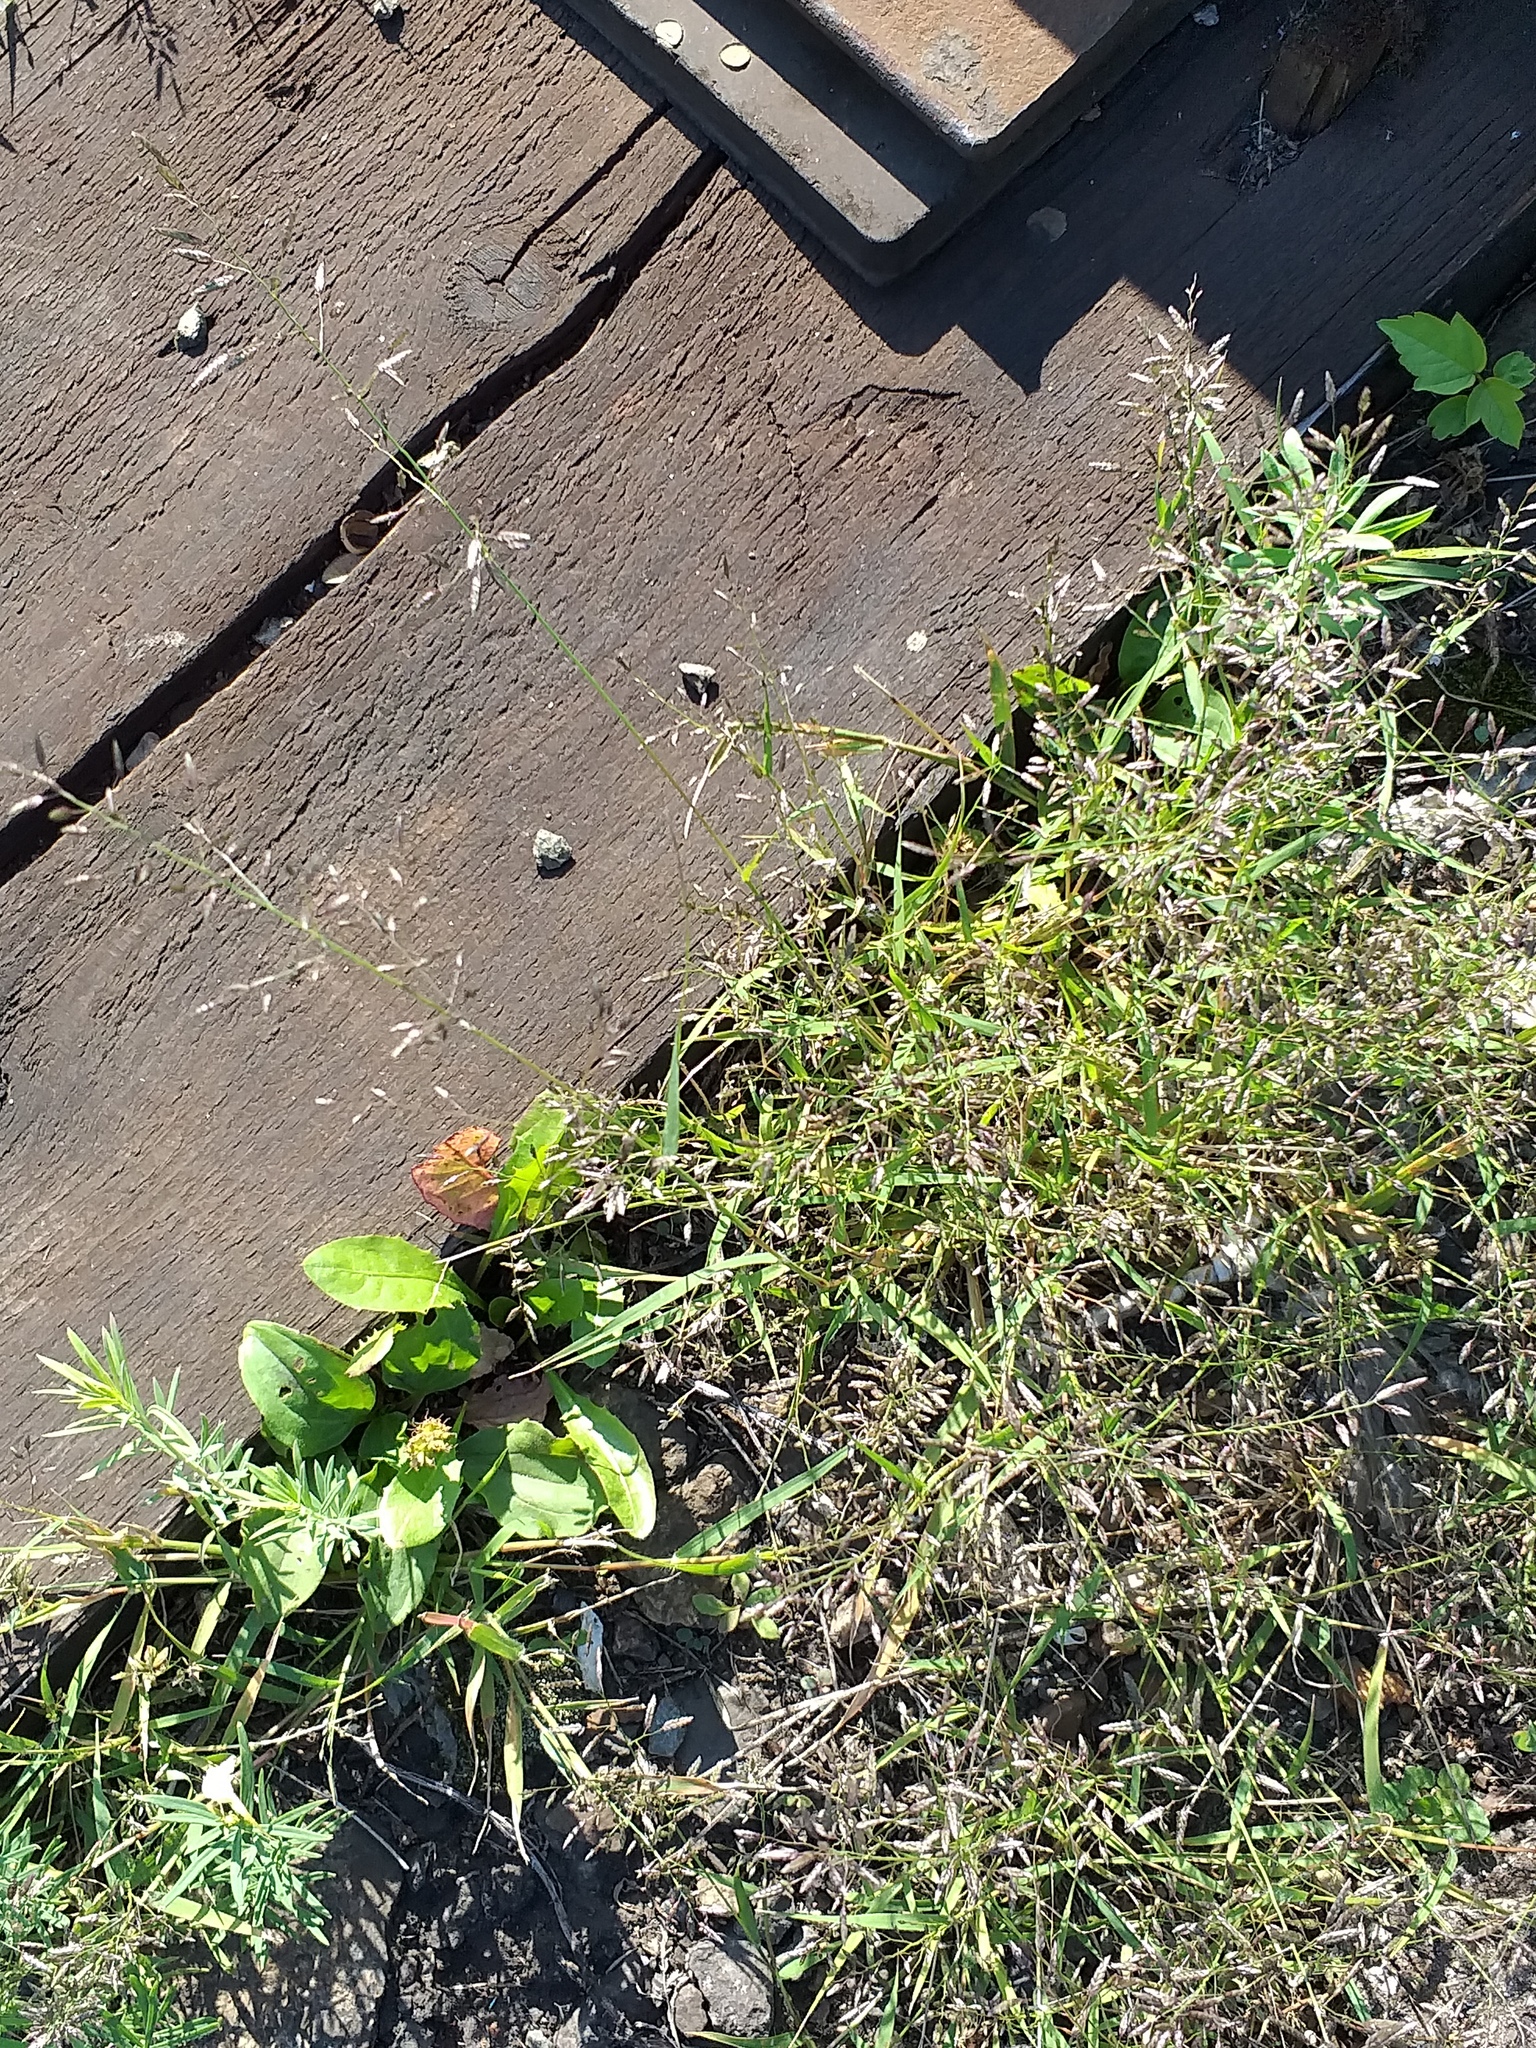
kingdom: Plantae
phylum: Tracheophyta
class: Liliopsida
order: Poales
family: Poaceae
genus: Eragrostis
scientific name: Eragrostis minor
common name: Small love-grass
